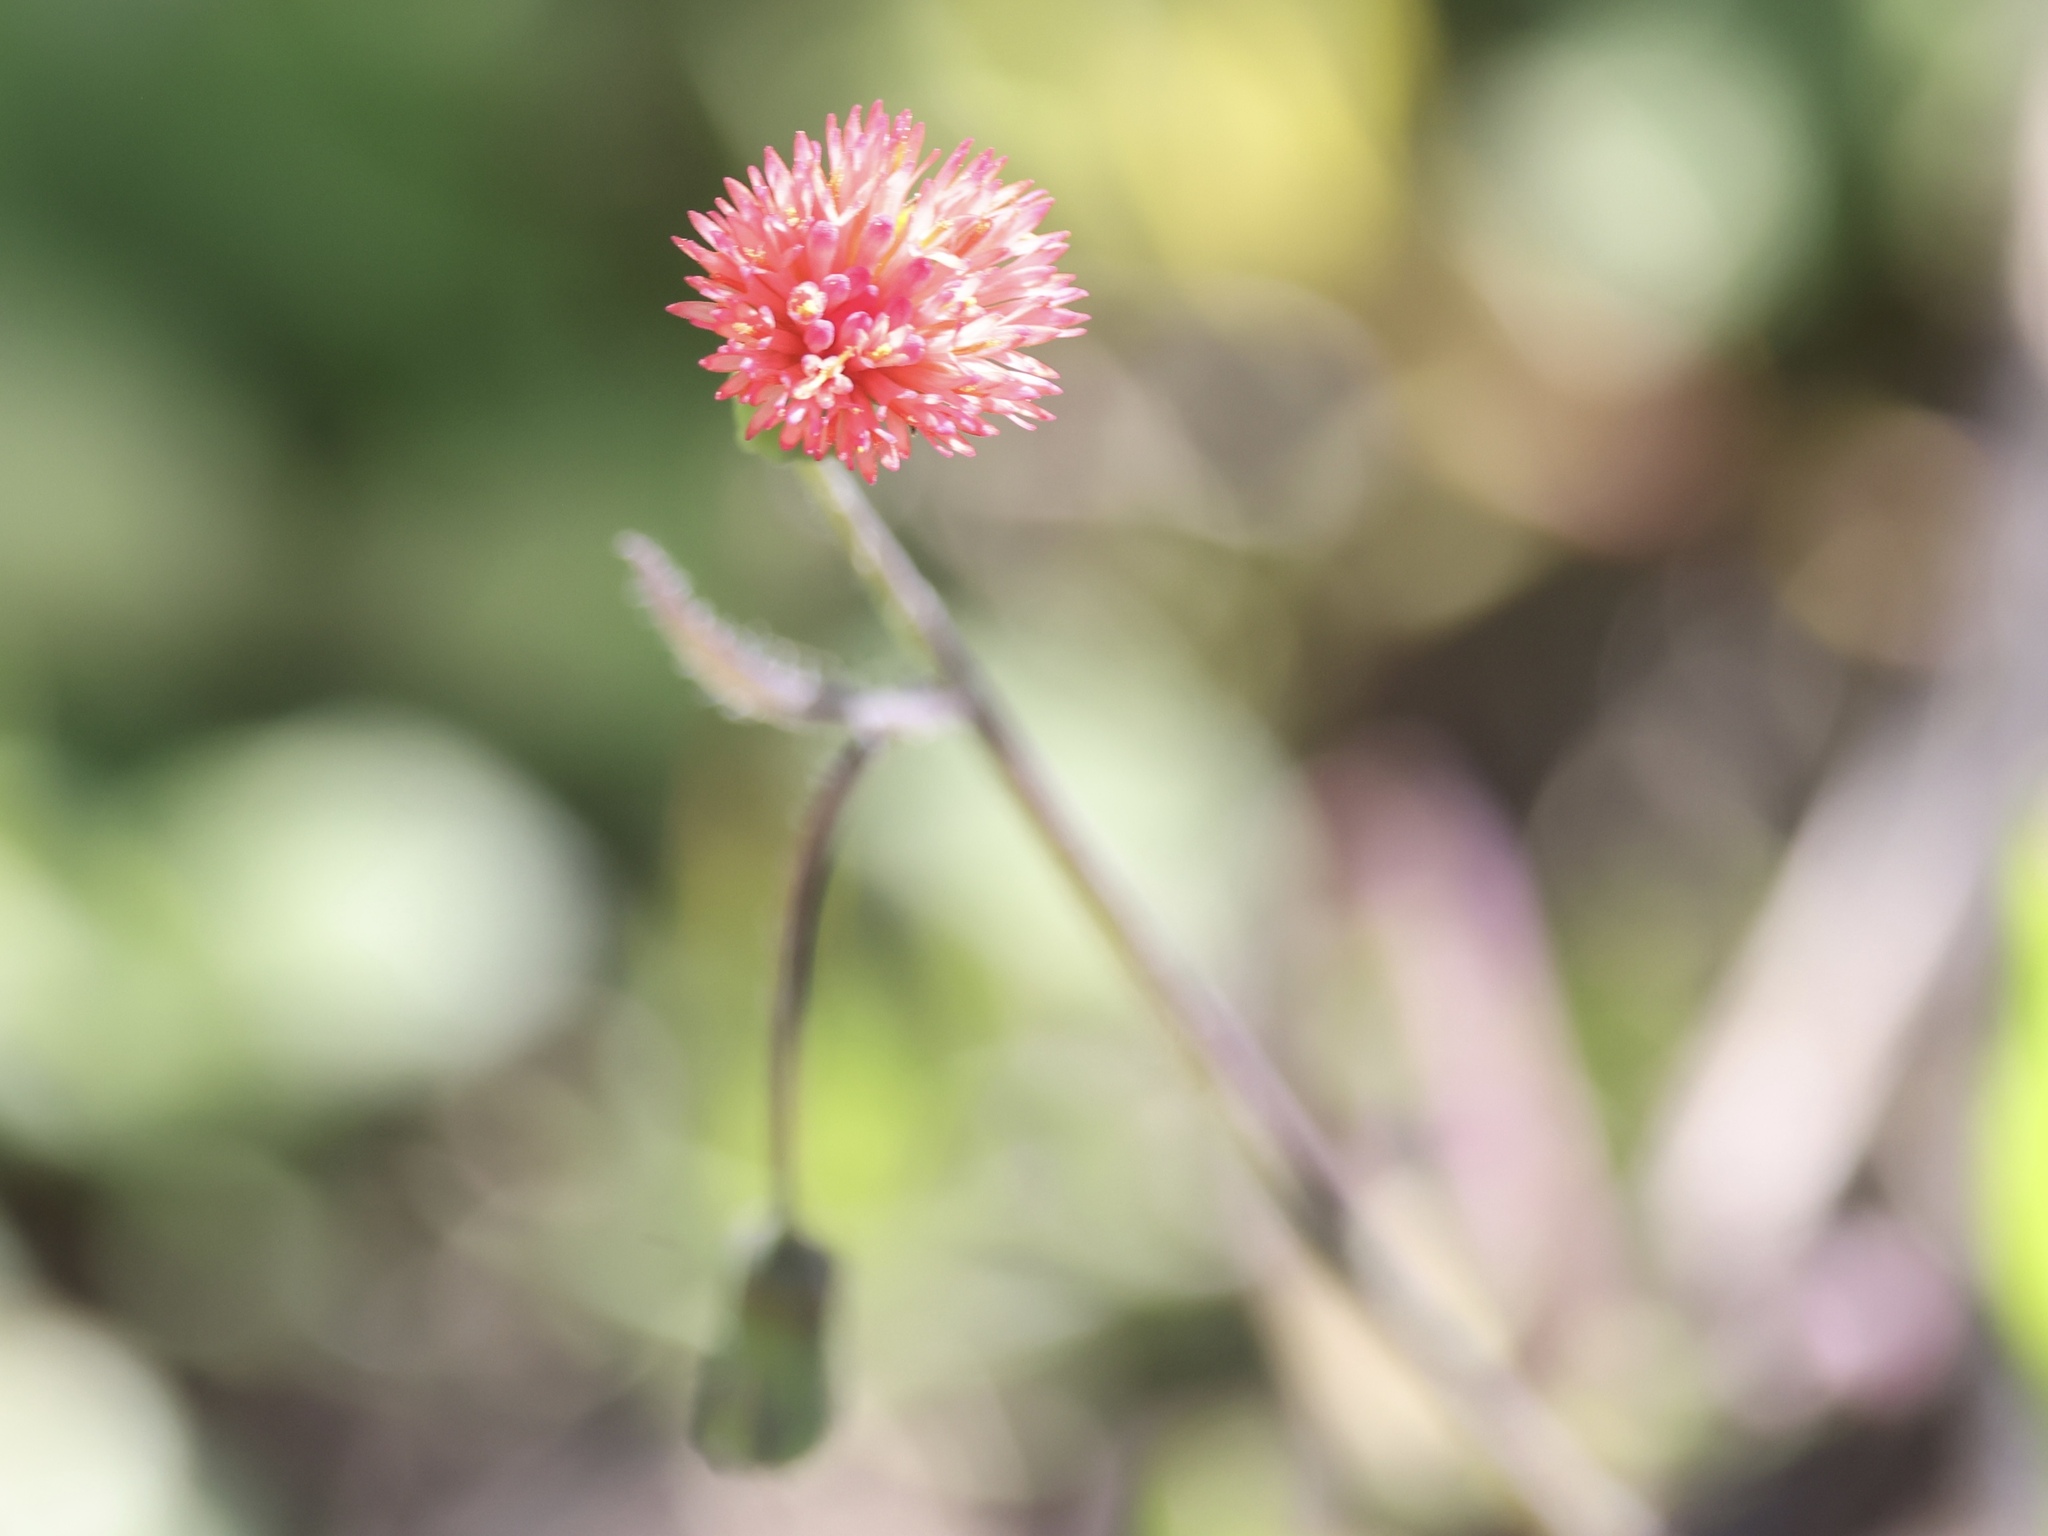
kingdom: Plantae
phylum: Tracheophyta
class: Magnoliopsida
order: Asterales
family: Asteraceae
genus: Emilia
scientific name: Emilia fosbergii
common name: Florida tasselflower
